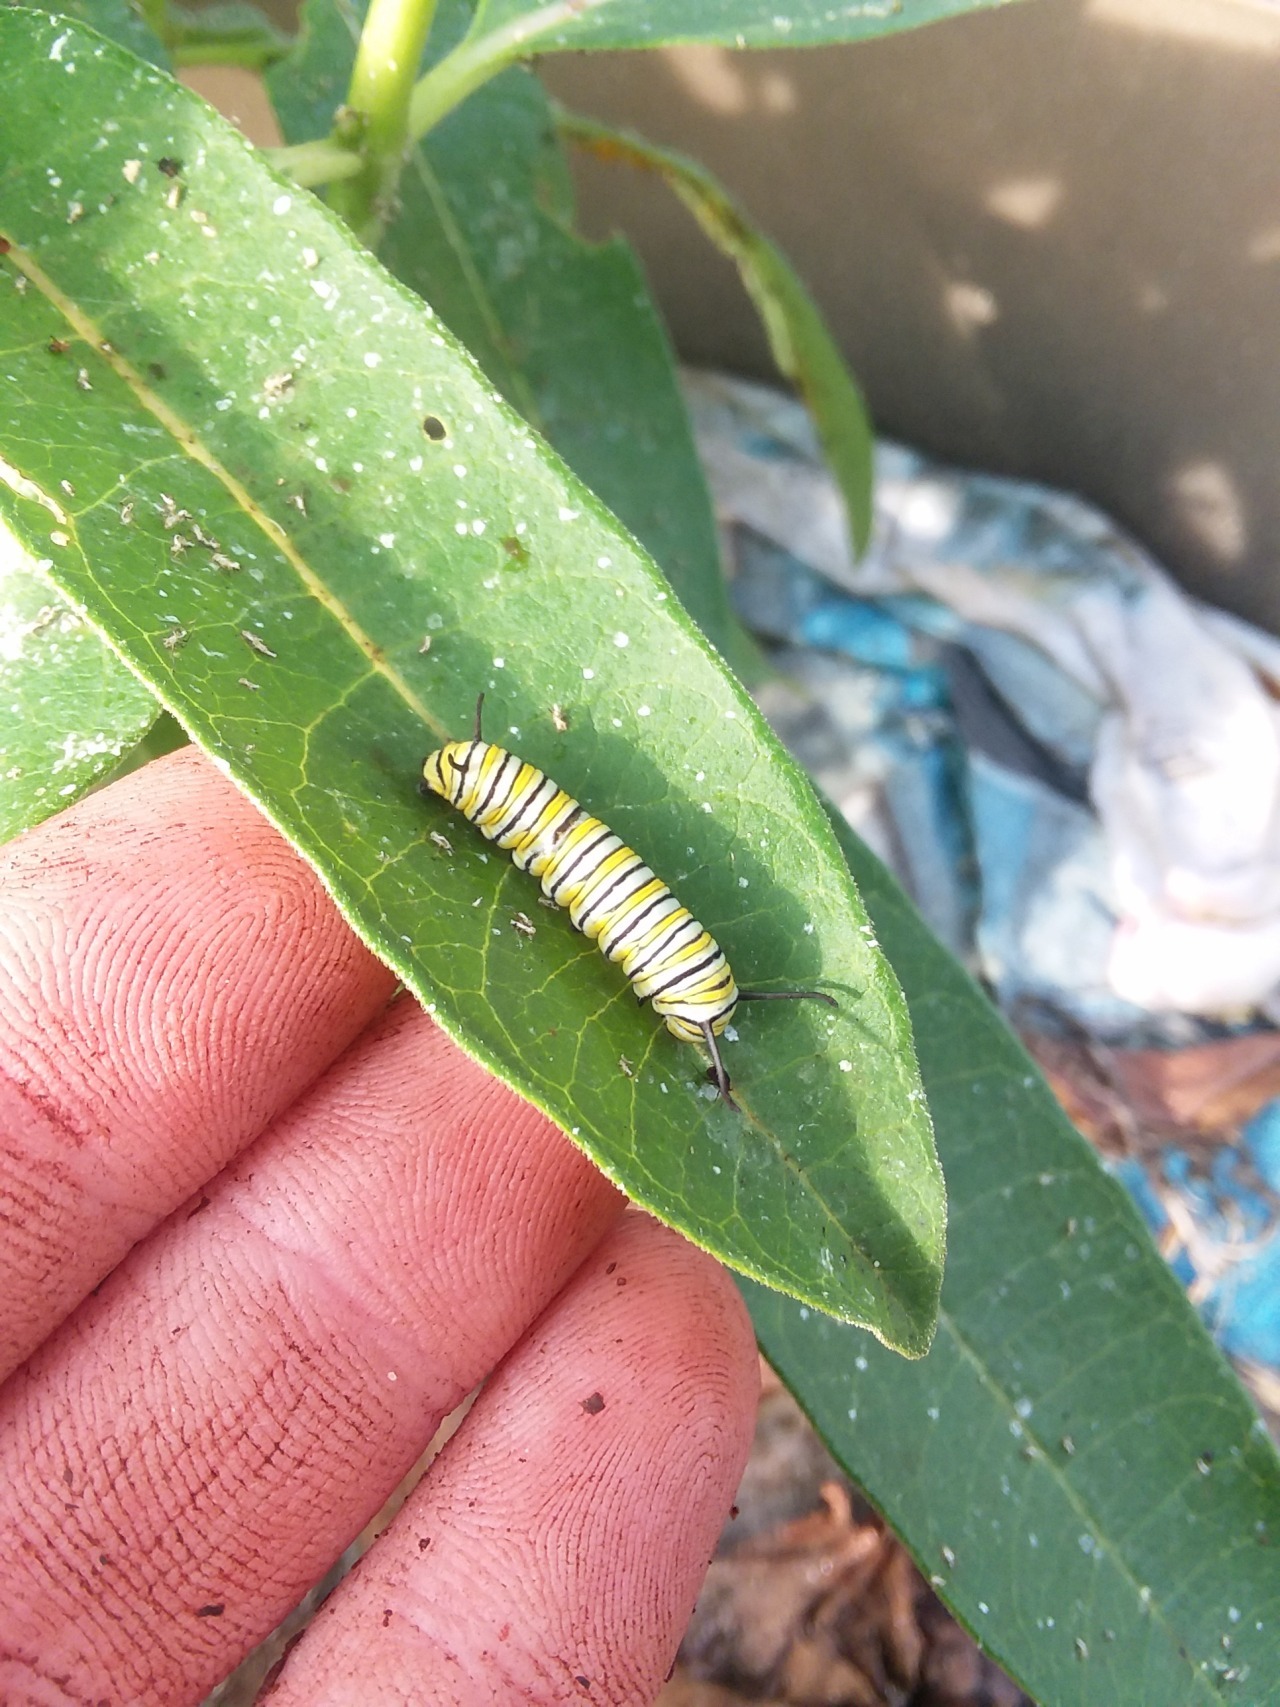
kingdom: Animalia
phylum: Arthropoda
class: Insecta
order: Lepidoptera
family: Nymphalidae
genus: Danaus
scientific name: Danaus plexippus
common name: Monarch
